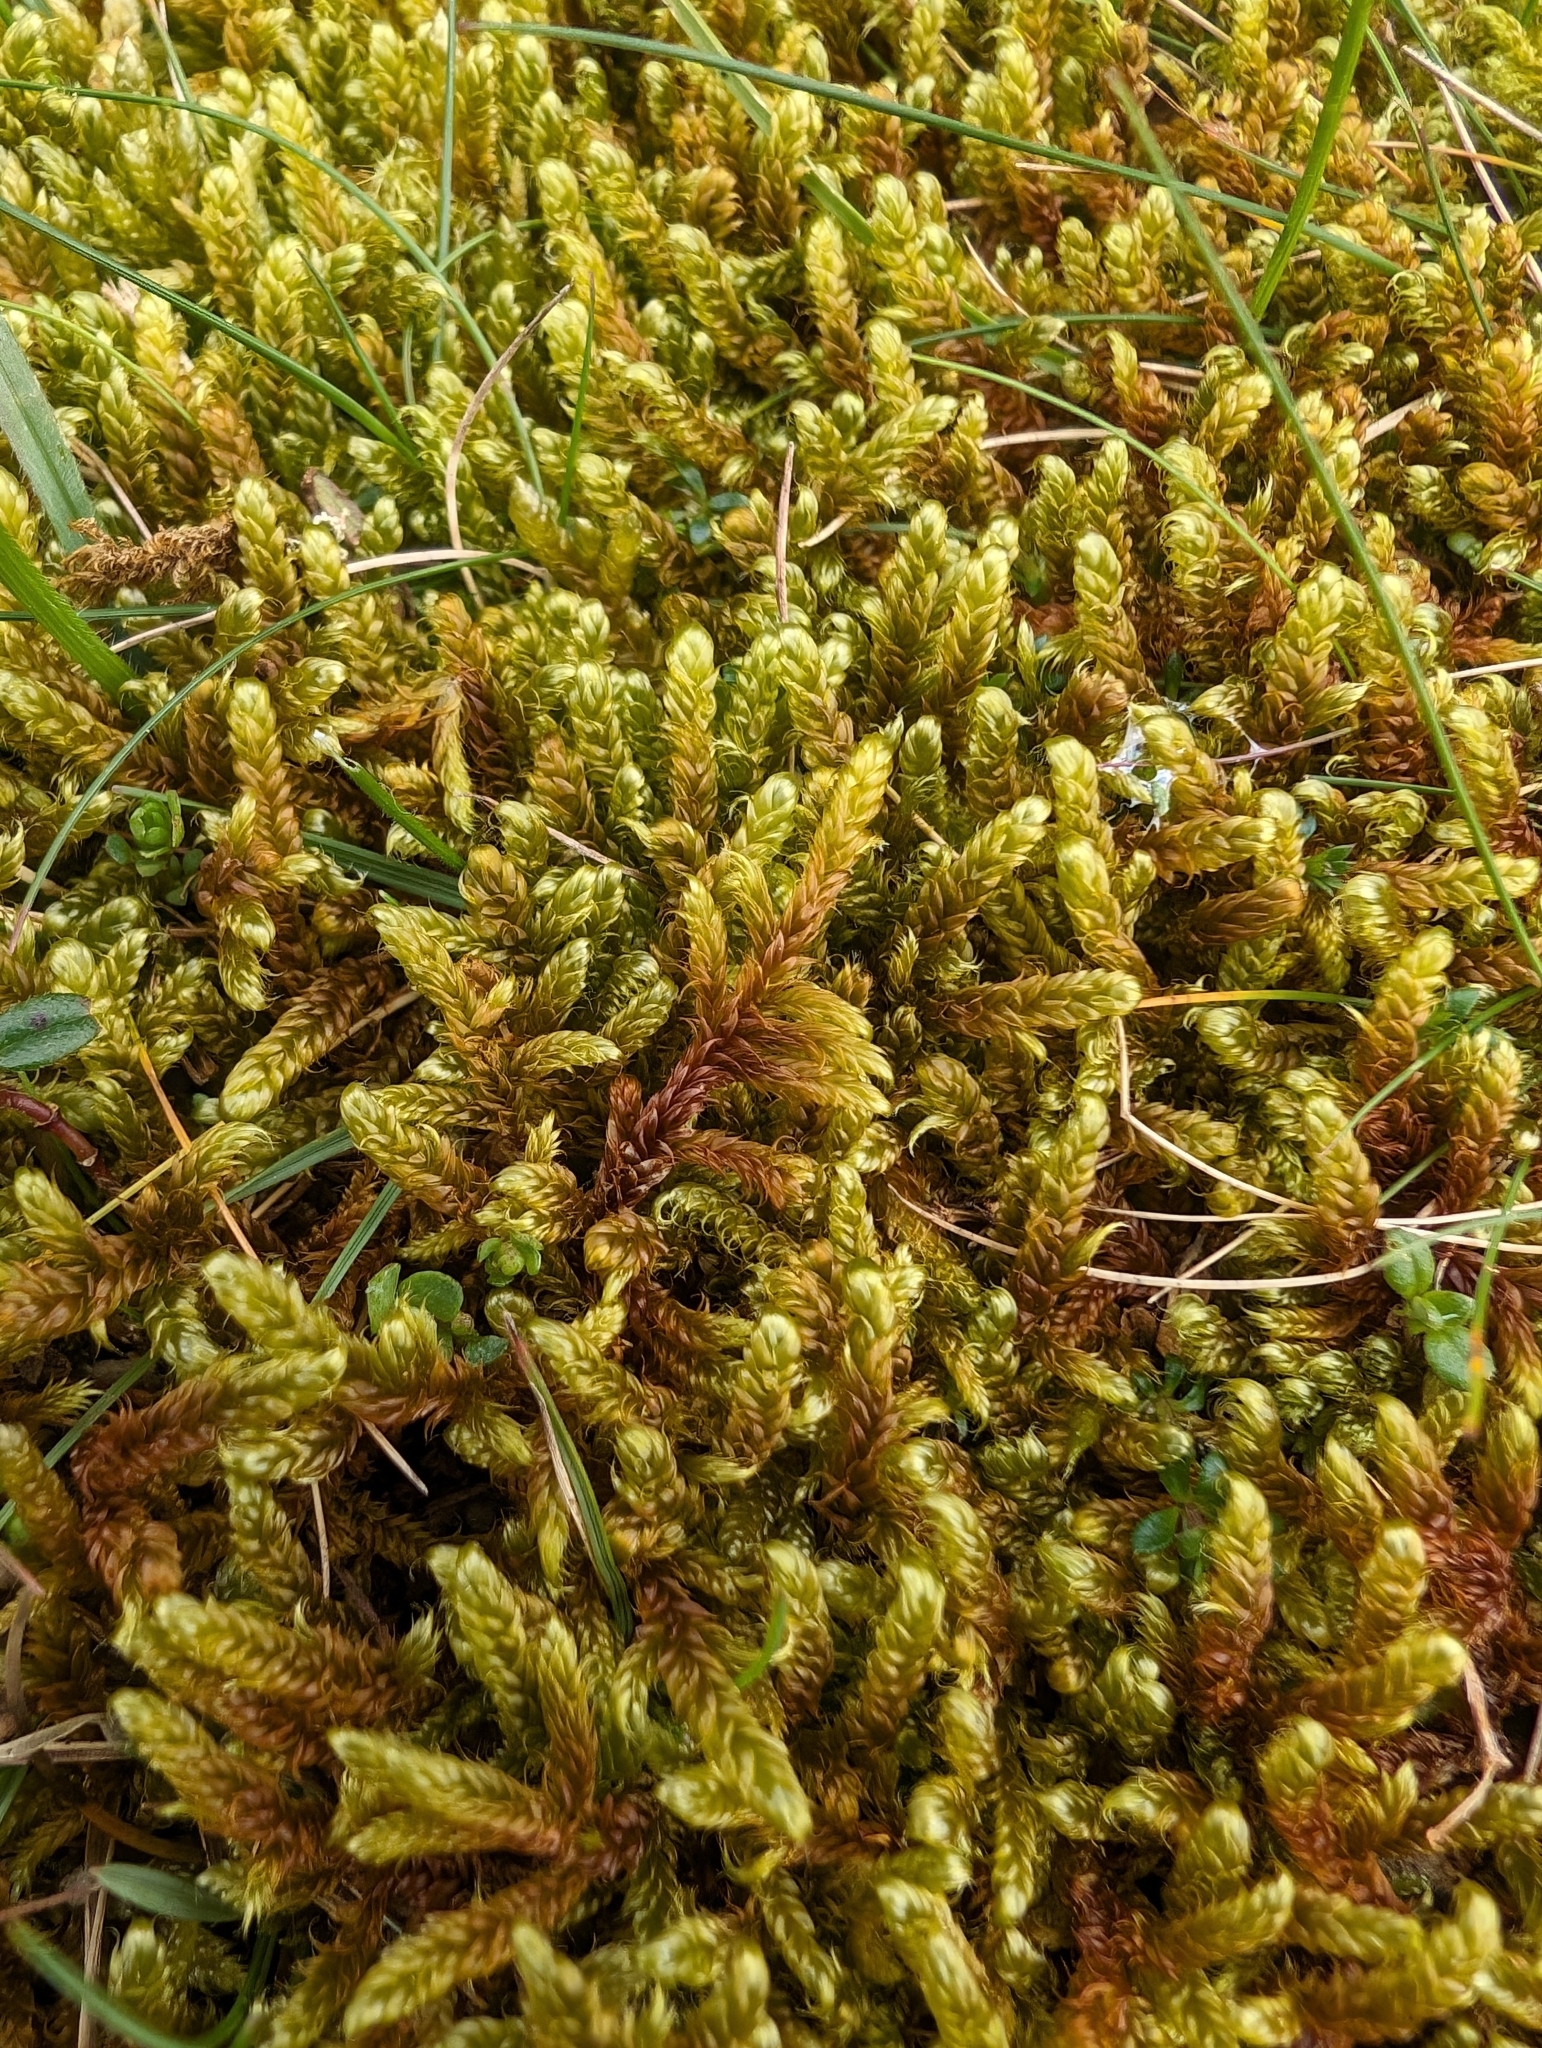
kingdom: Plantae
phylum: Bryophyta
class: Bryopsida
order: Hypnales
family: Hypnaceae
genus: Hypnum
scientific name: Hypnum cupressiforme
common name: Cypress-leaved plait-moss
